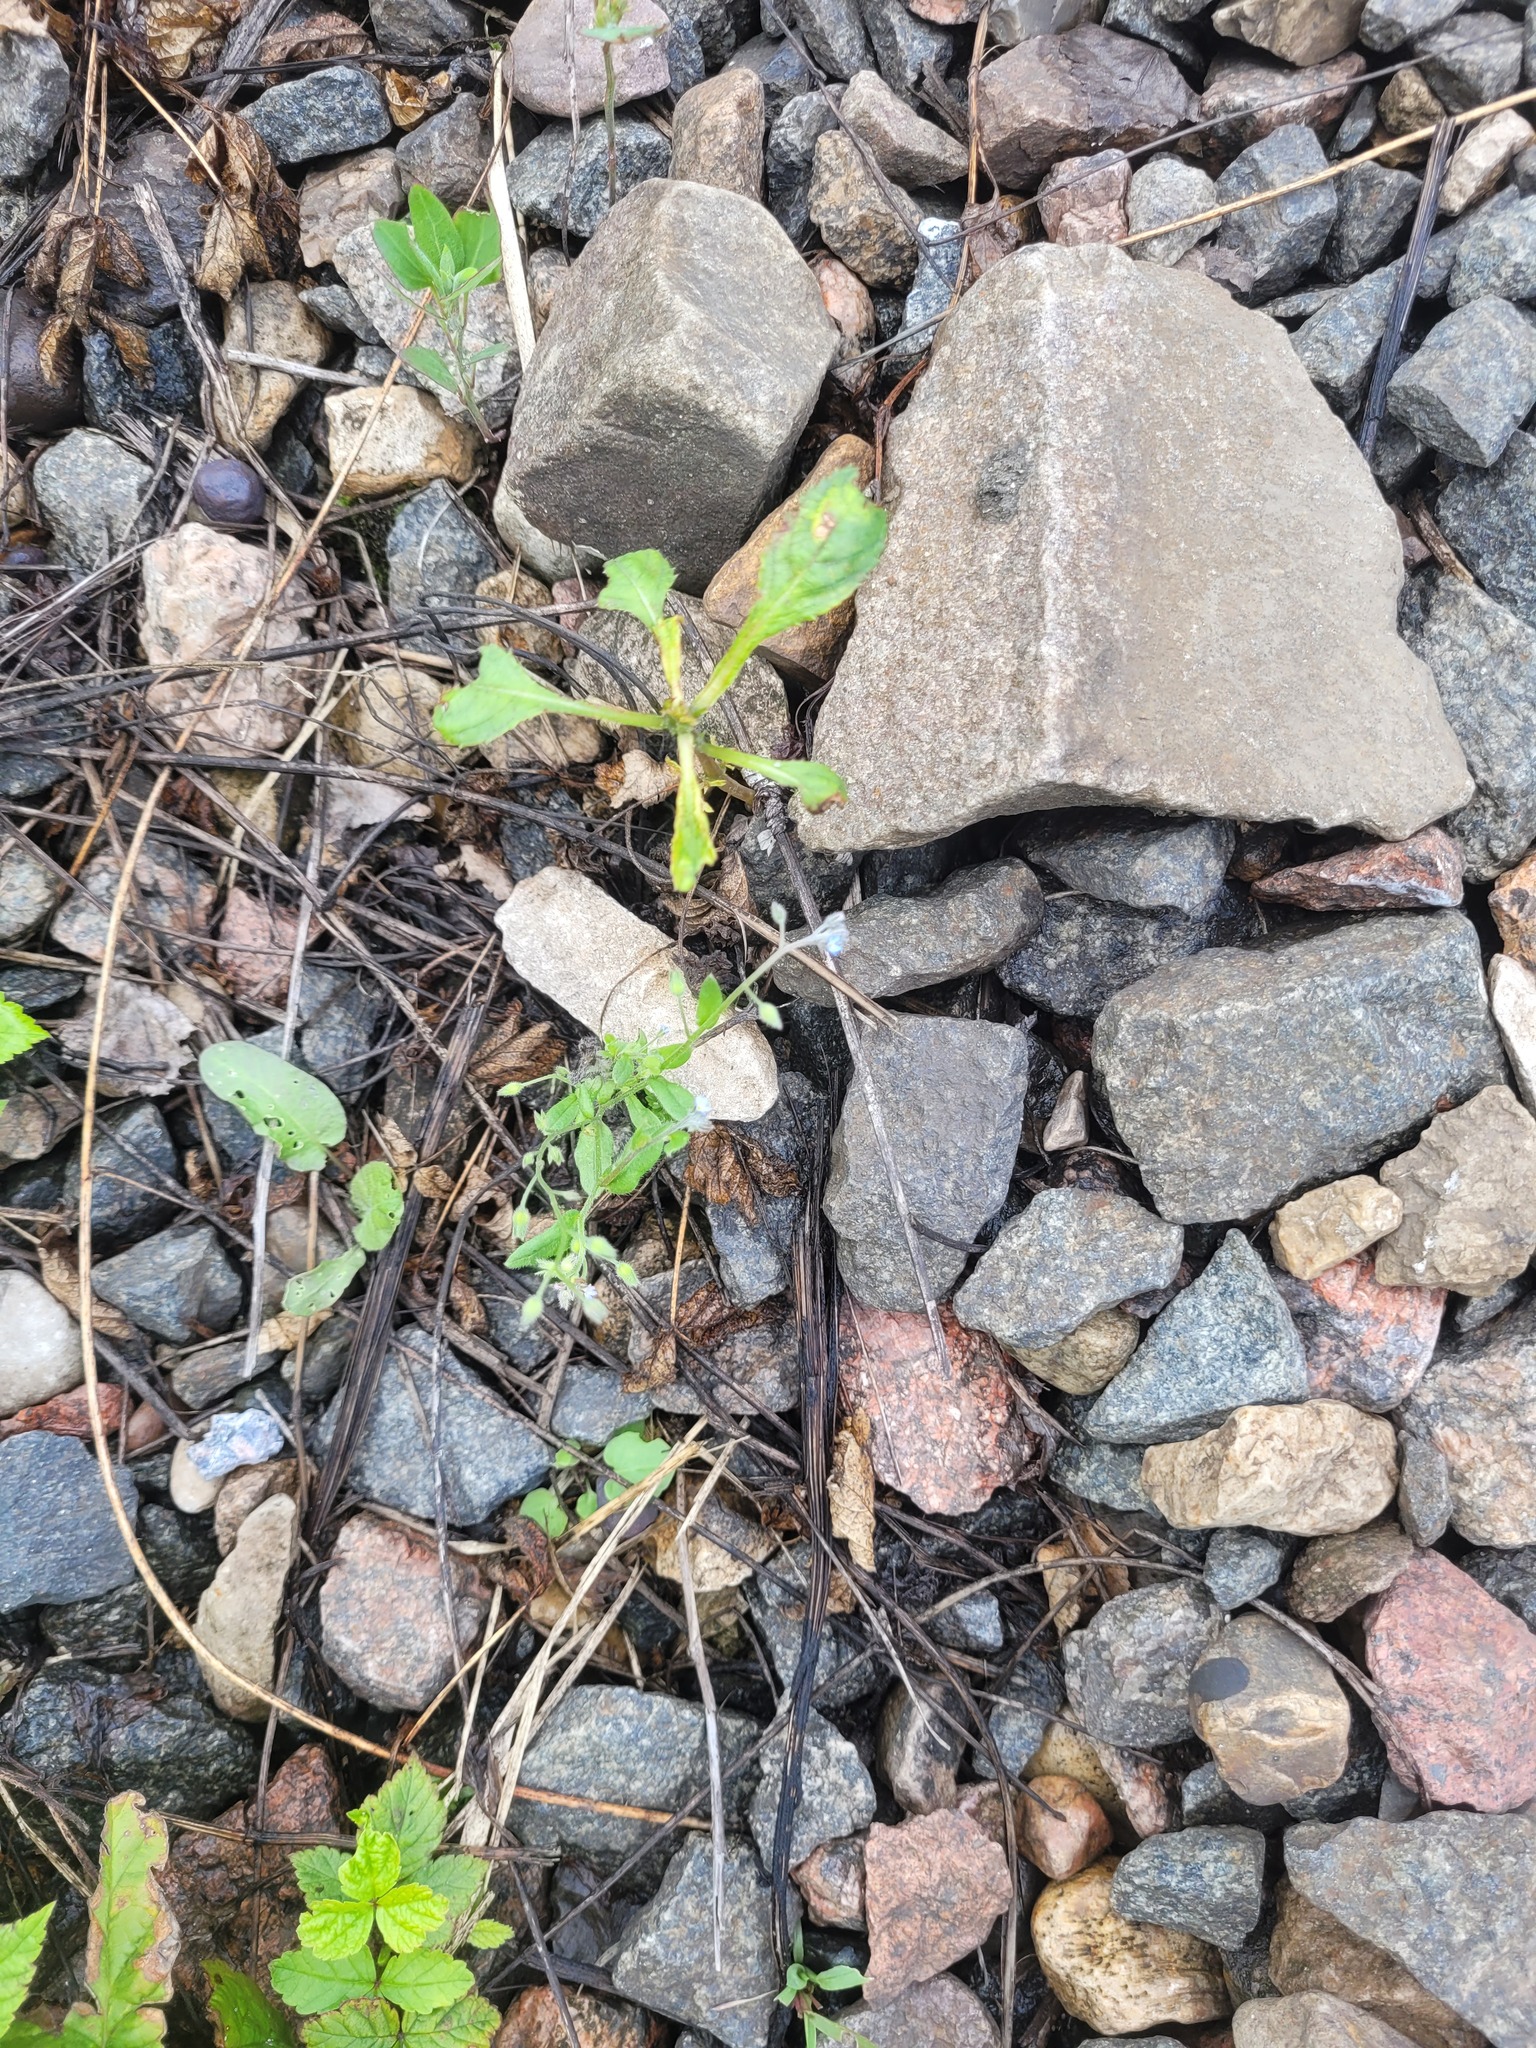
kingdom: Plantae
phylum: Tracheophyta
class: Magnoliopsida
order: Boraginales
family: Boraginaceae
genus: Myosotis
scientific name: Myosotis arvensis
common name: Field forget-me-not
